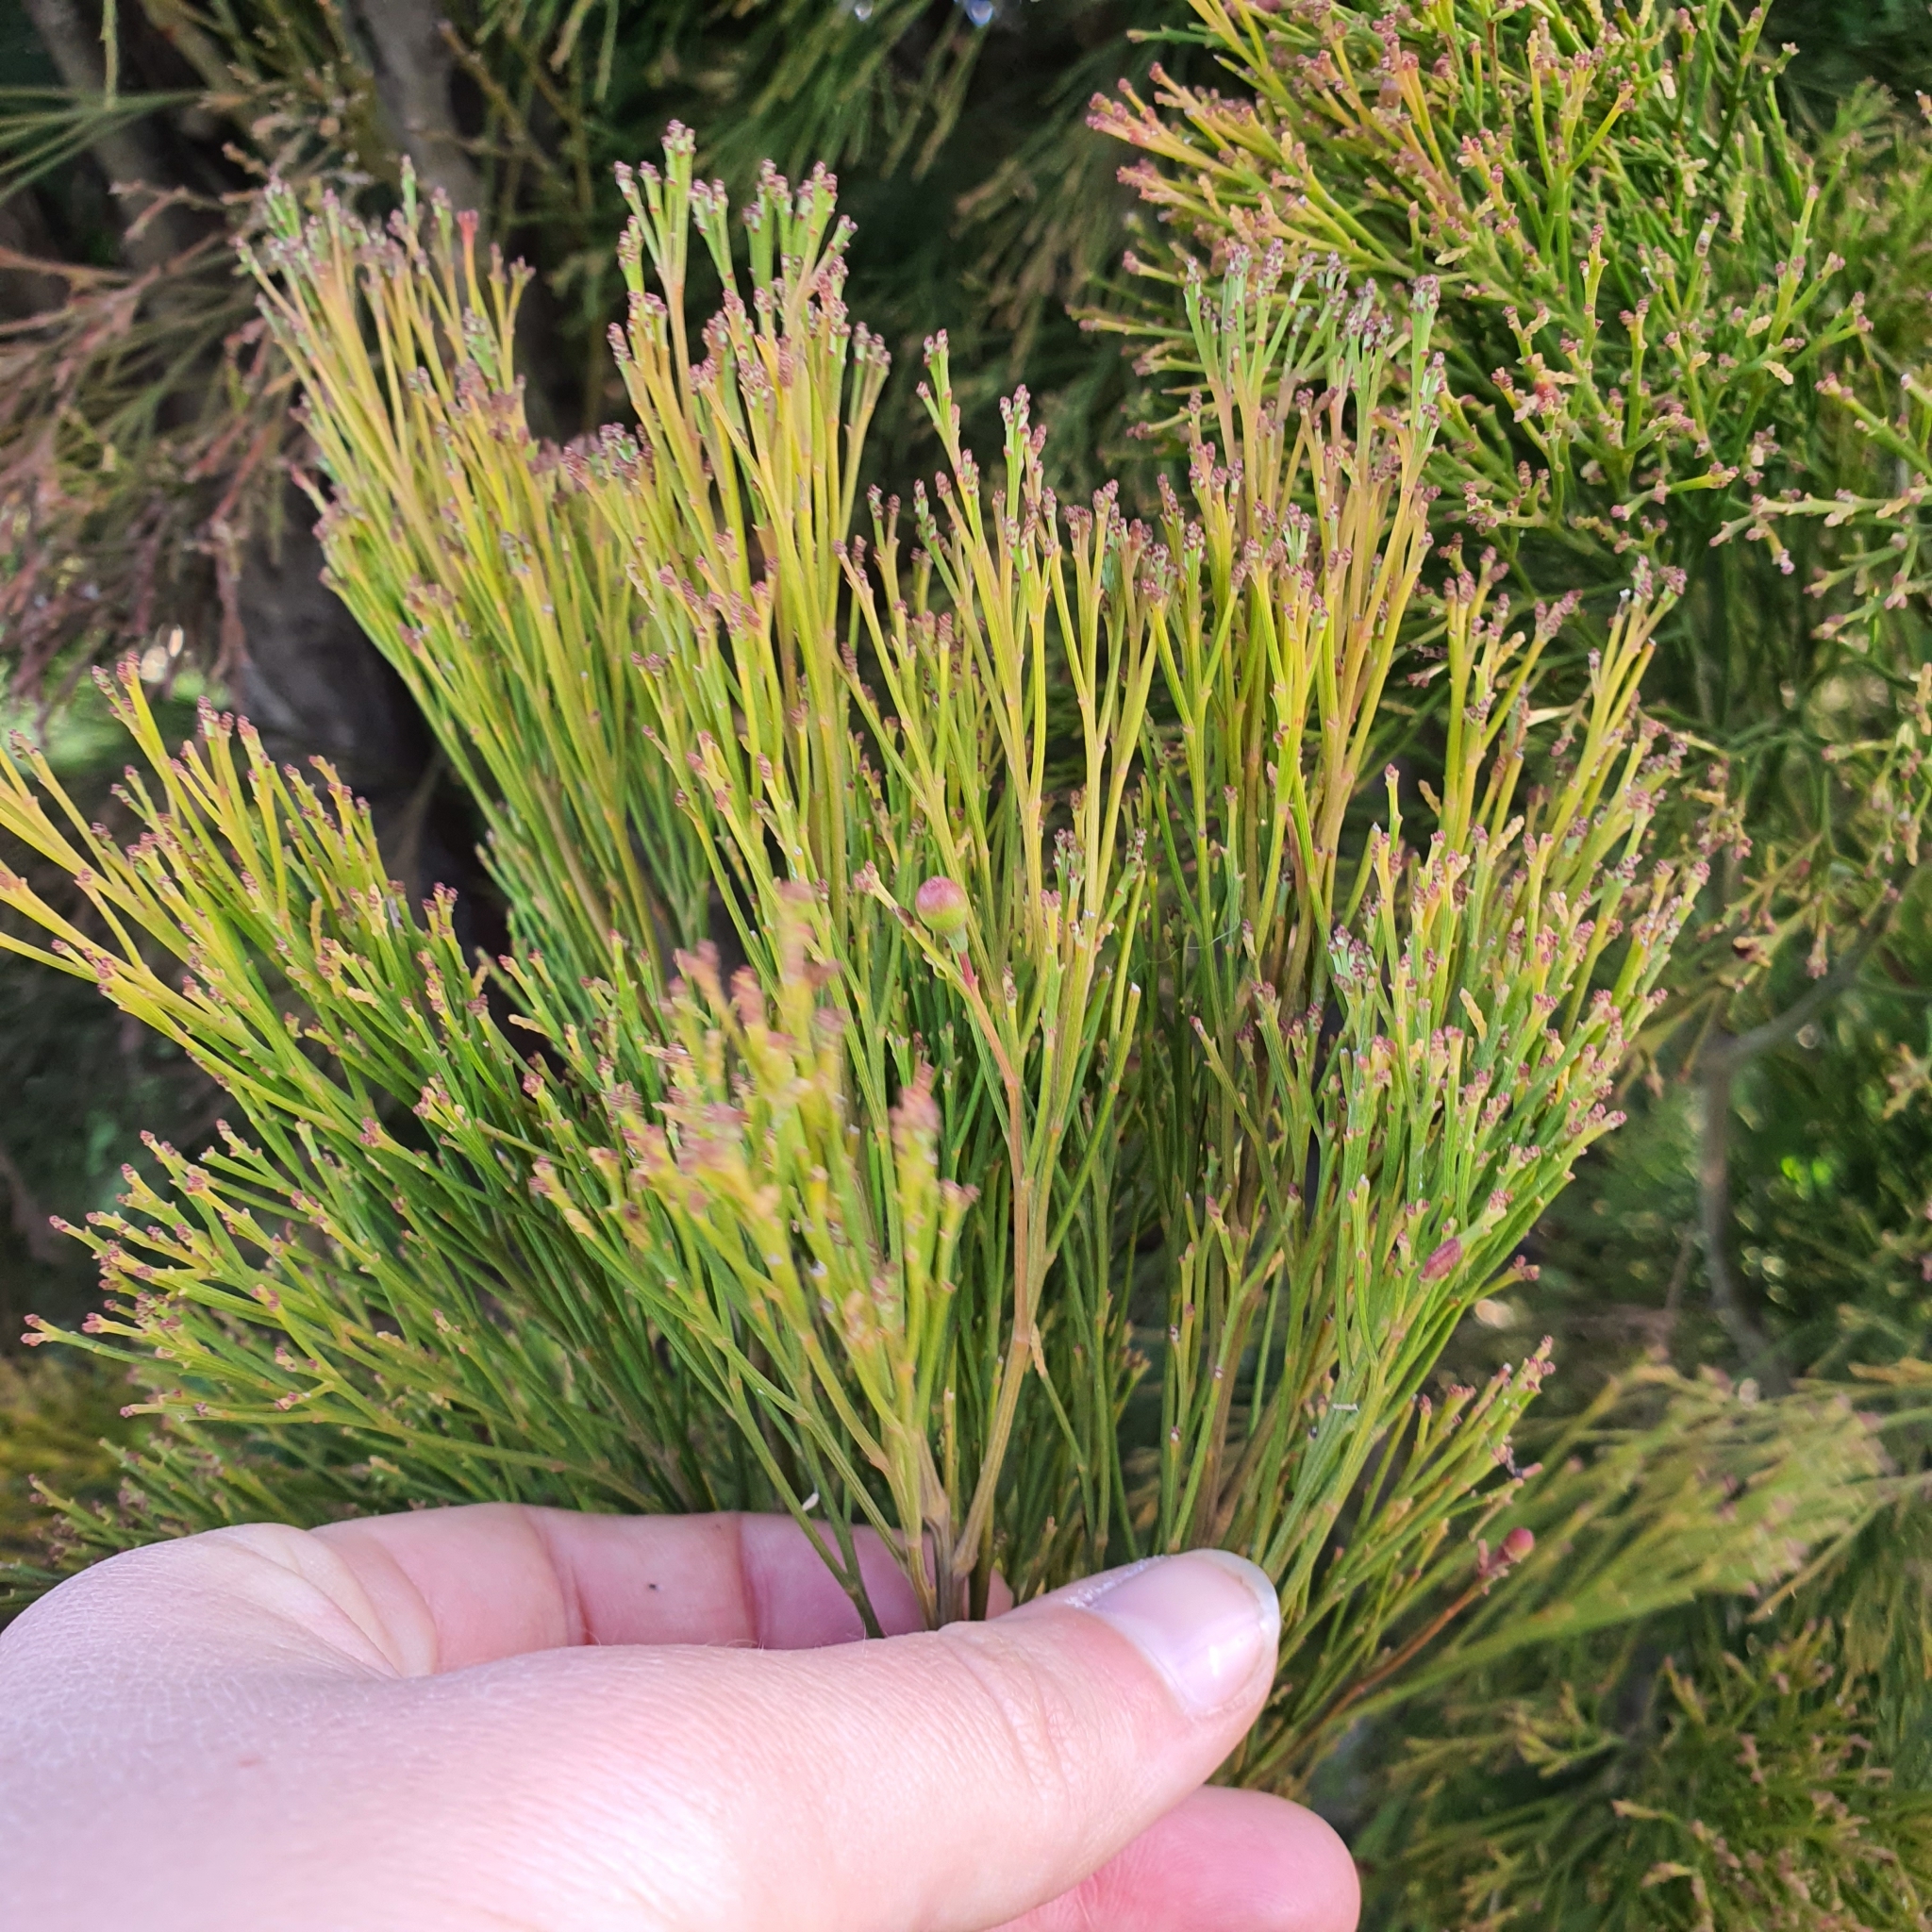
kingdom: Plantae
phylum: Tracheophyta
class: Magnoliopsida
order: Santalales
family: Santalaceae
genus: Exocarpos
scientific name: Exocarpos cupressiformis
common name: Cherry ballart
